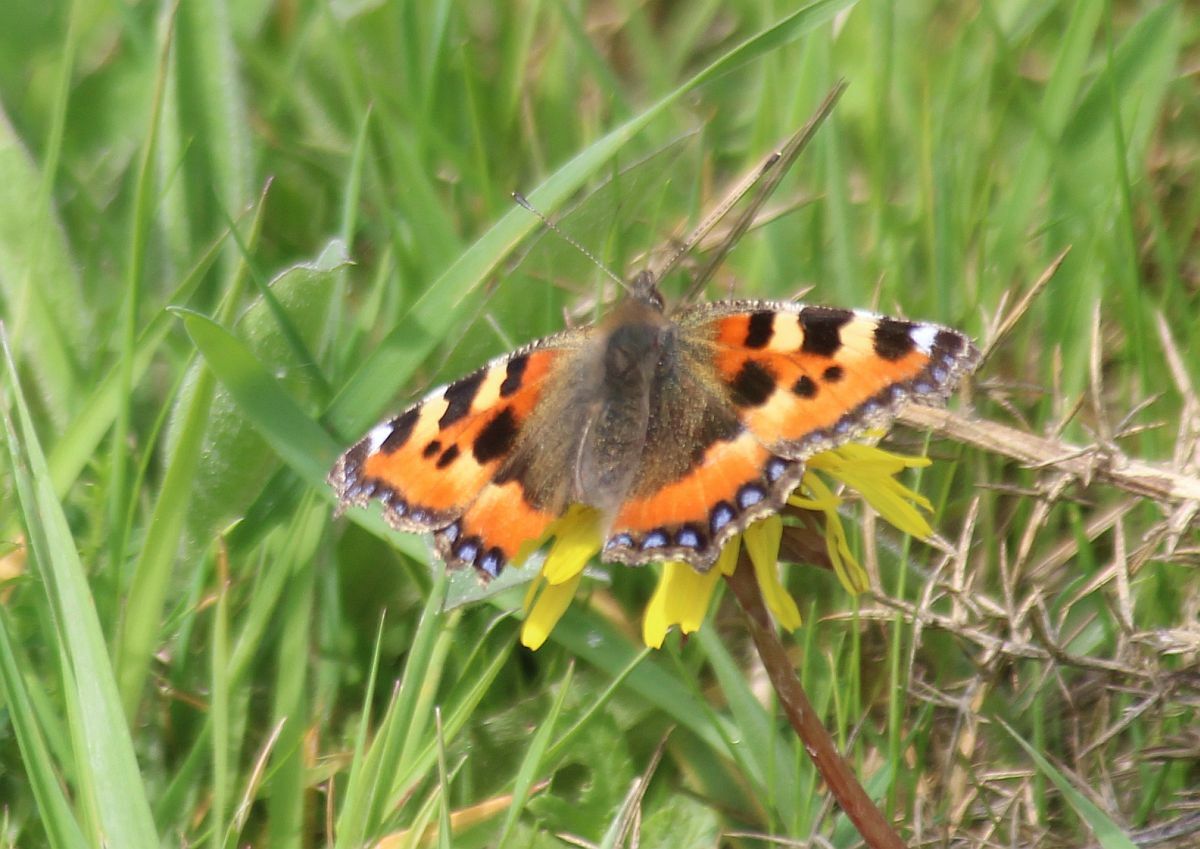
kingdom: Animalia
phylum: Arthropoda
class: Insecta
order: Lepidoptera
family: Nymphalidae
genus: Aglais
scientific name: Aglais urticae
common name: Small tortoiseshell
